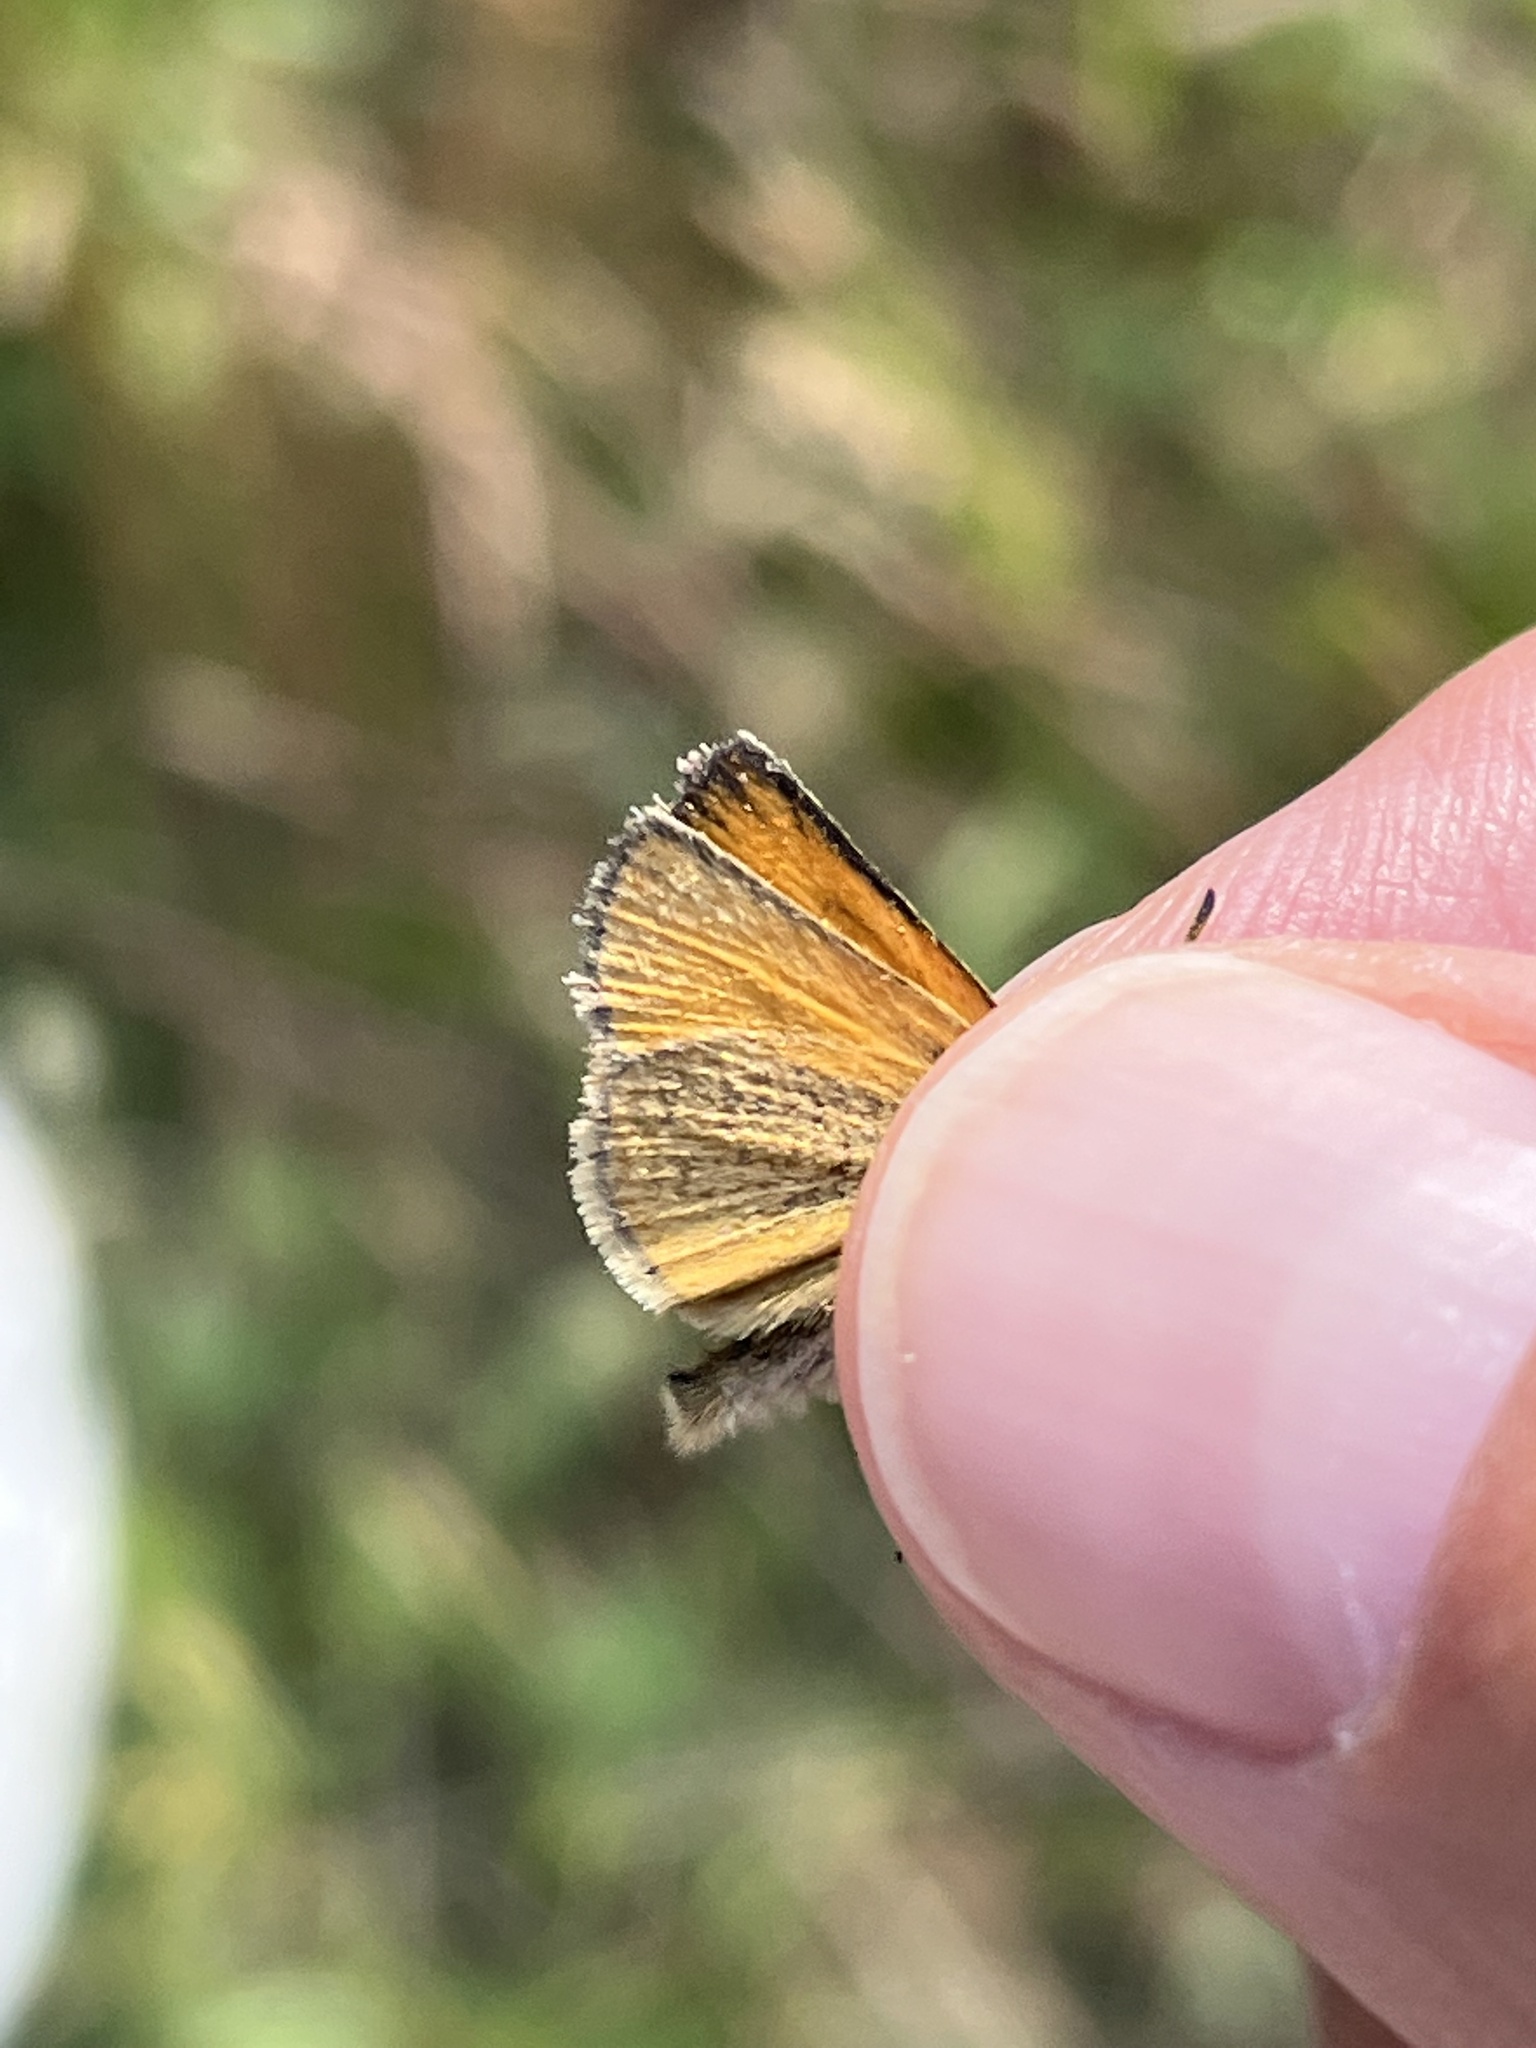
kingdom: Animalia
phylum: Arthropoda
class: Insecta
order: Lepidoptera
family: Hesperiidae
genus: Thymelicus
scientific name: Thymelicus lineola
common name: Essex skipper
